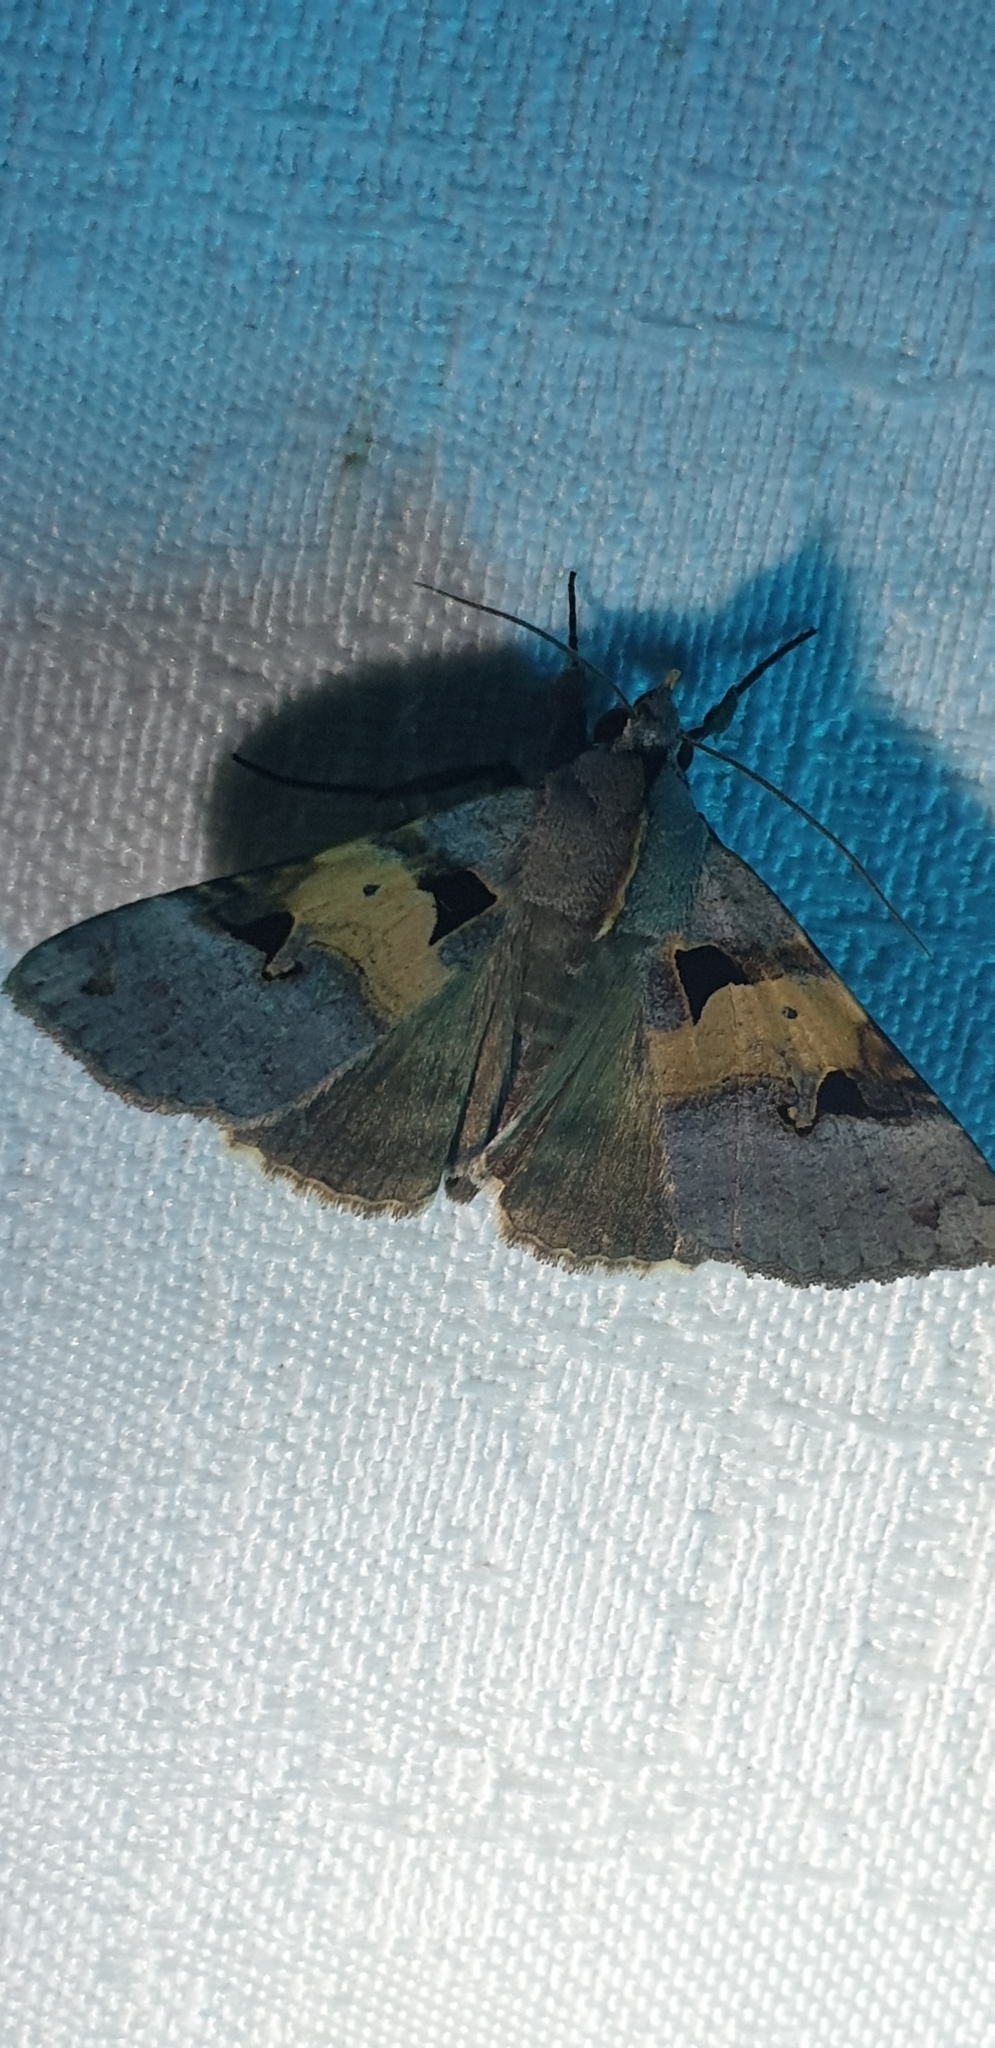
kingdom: Animalia
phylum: Arthropoda
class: Insecta
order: Lepidoptera
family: Erebidae
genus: Avatha
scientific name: Avatha discolor
